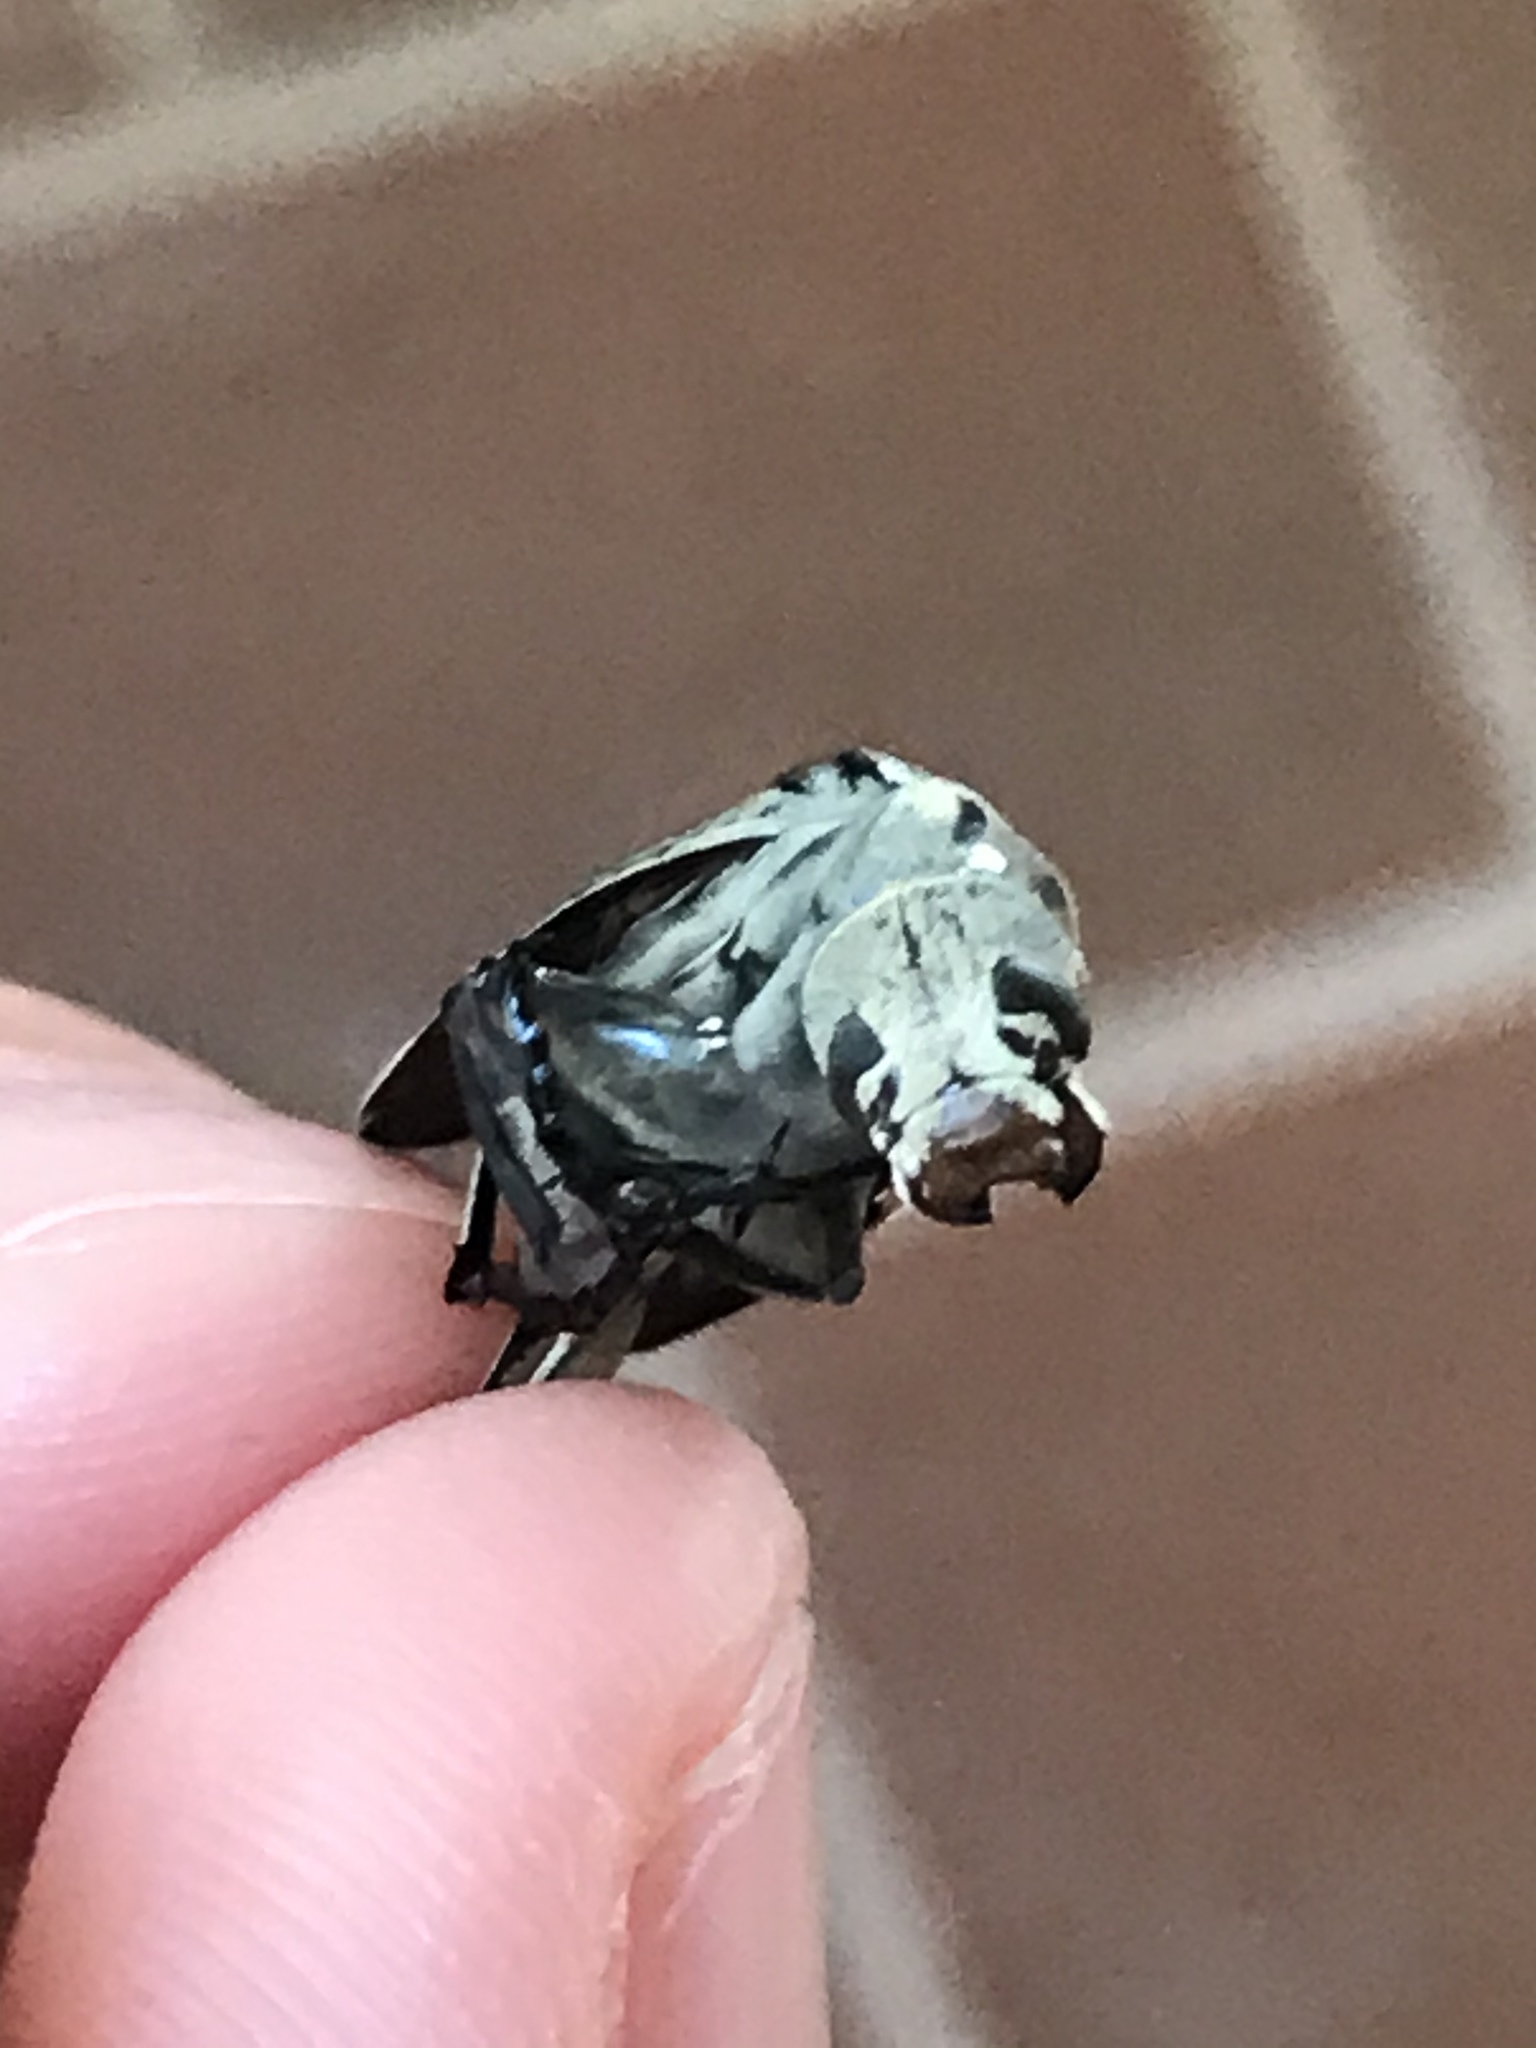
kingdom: Animalia
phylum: Arthropoda
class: Insecta
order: Coleoptera
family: Meloidae
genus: Epicauta
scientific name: Epicauta albida
